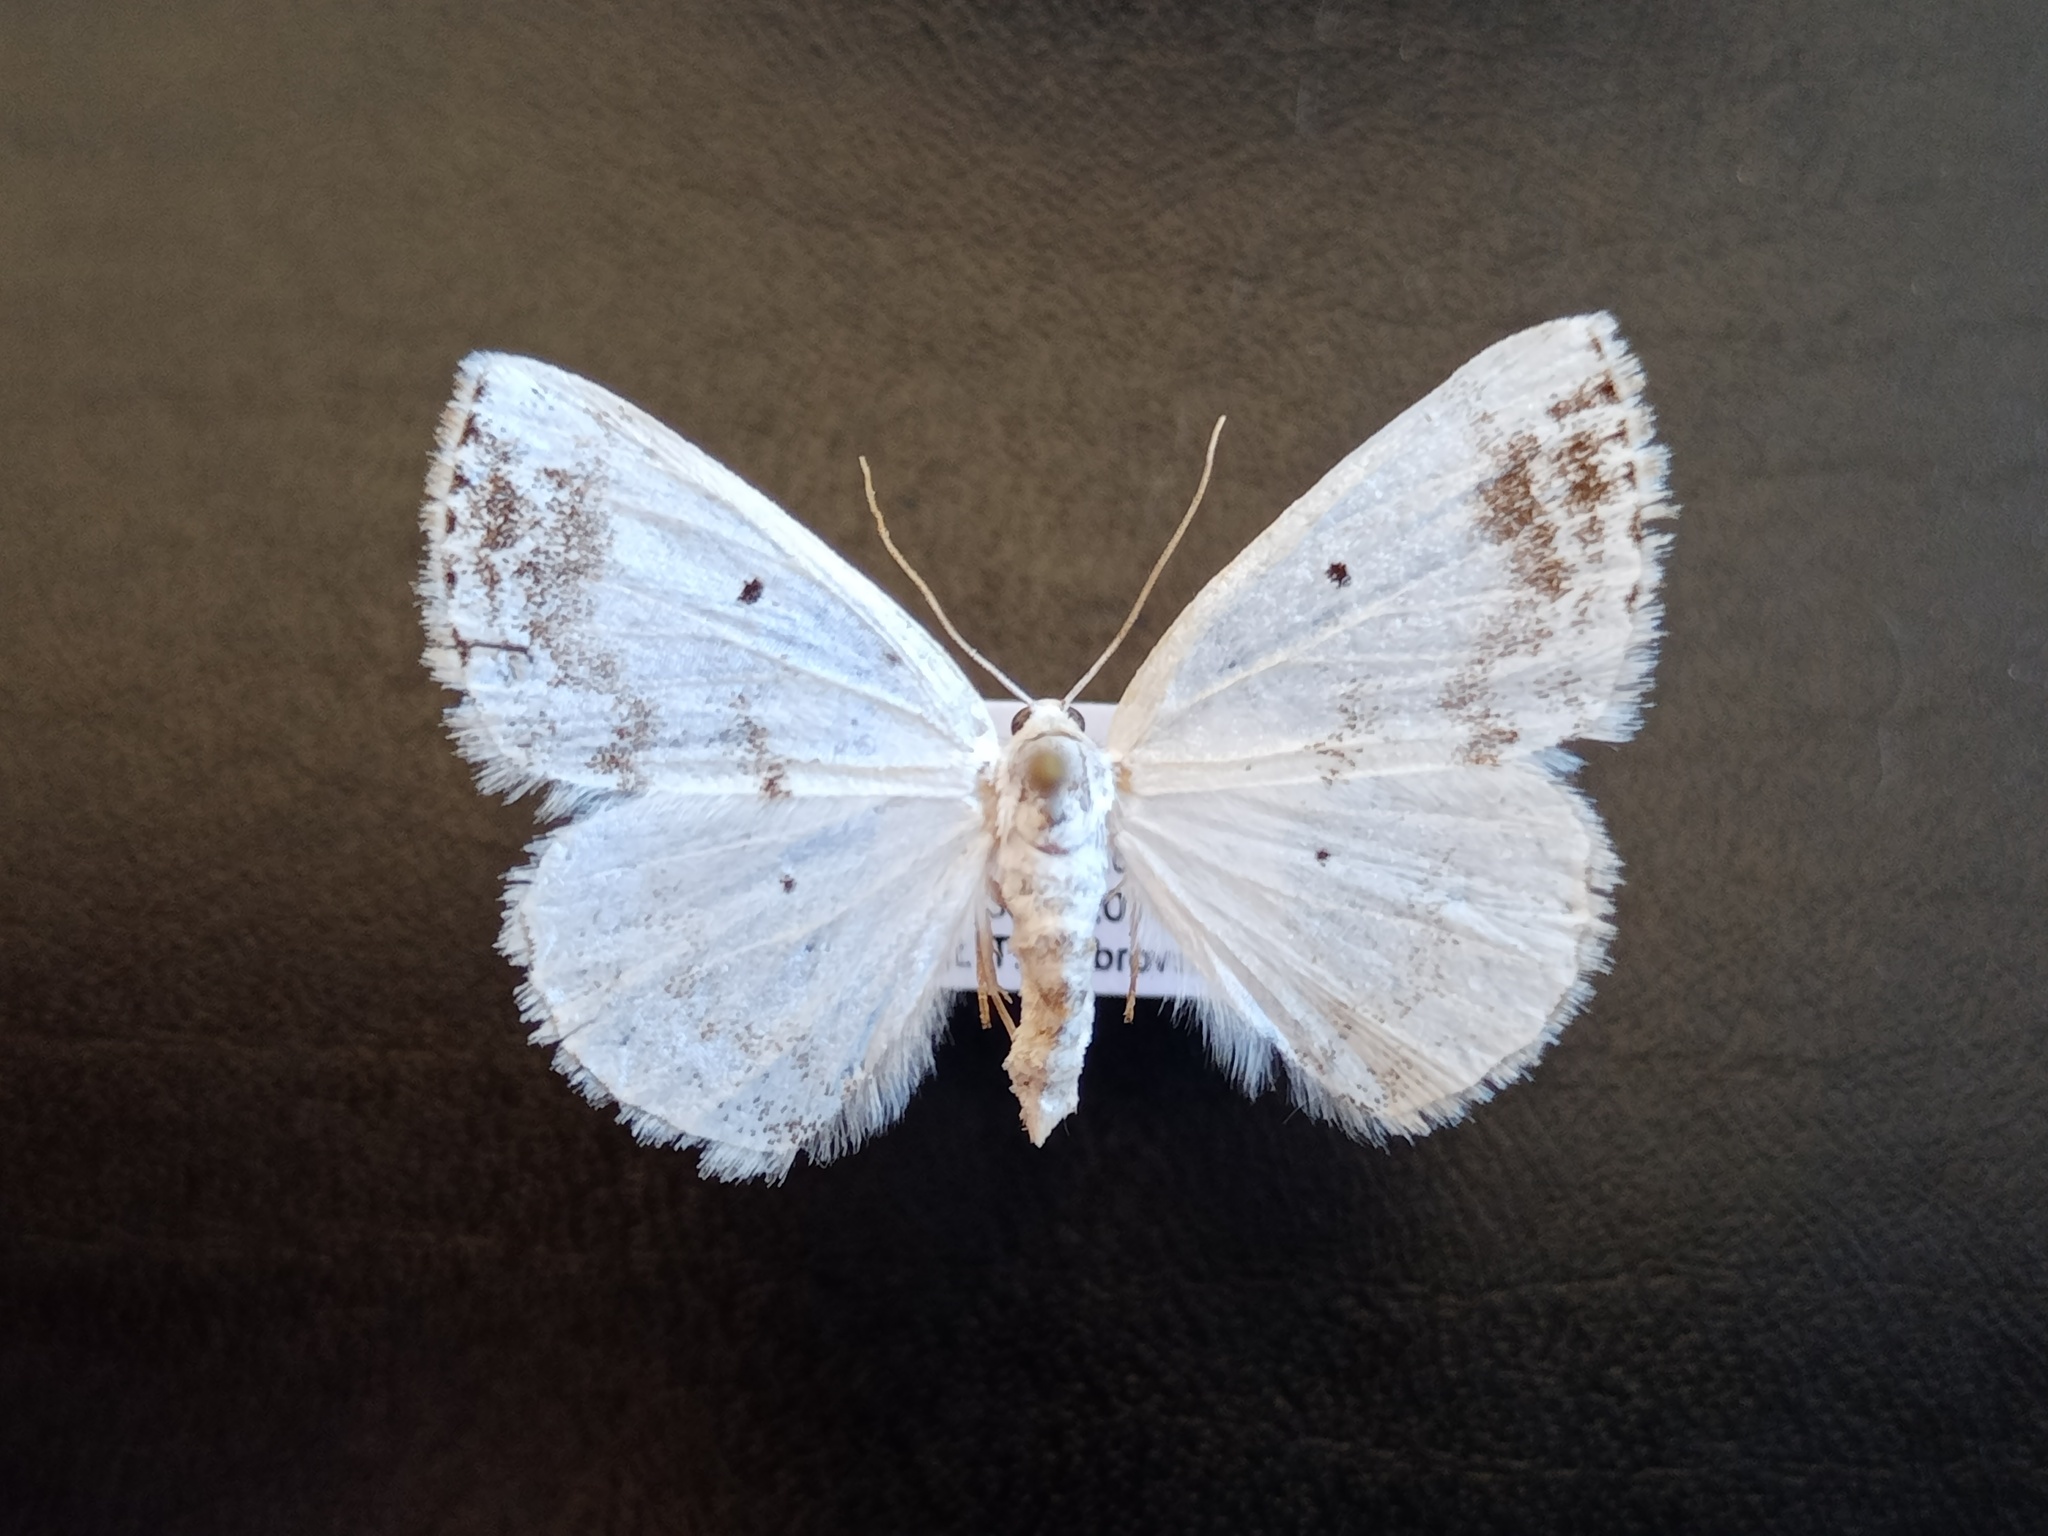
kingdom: Animalia
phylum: Arthropoda
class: Insecta
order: Lepidoptera
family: Geometridae
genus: Lomographa
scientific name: Lomographa temerata
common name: Clouded silver
